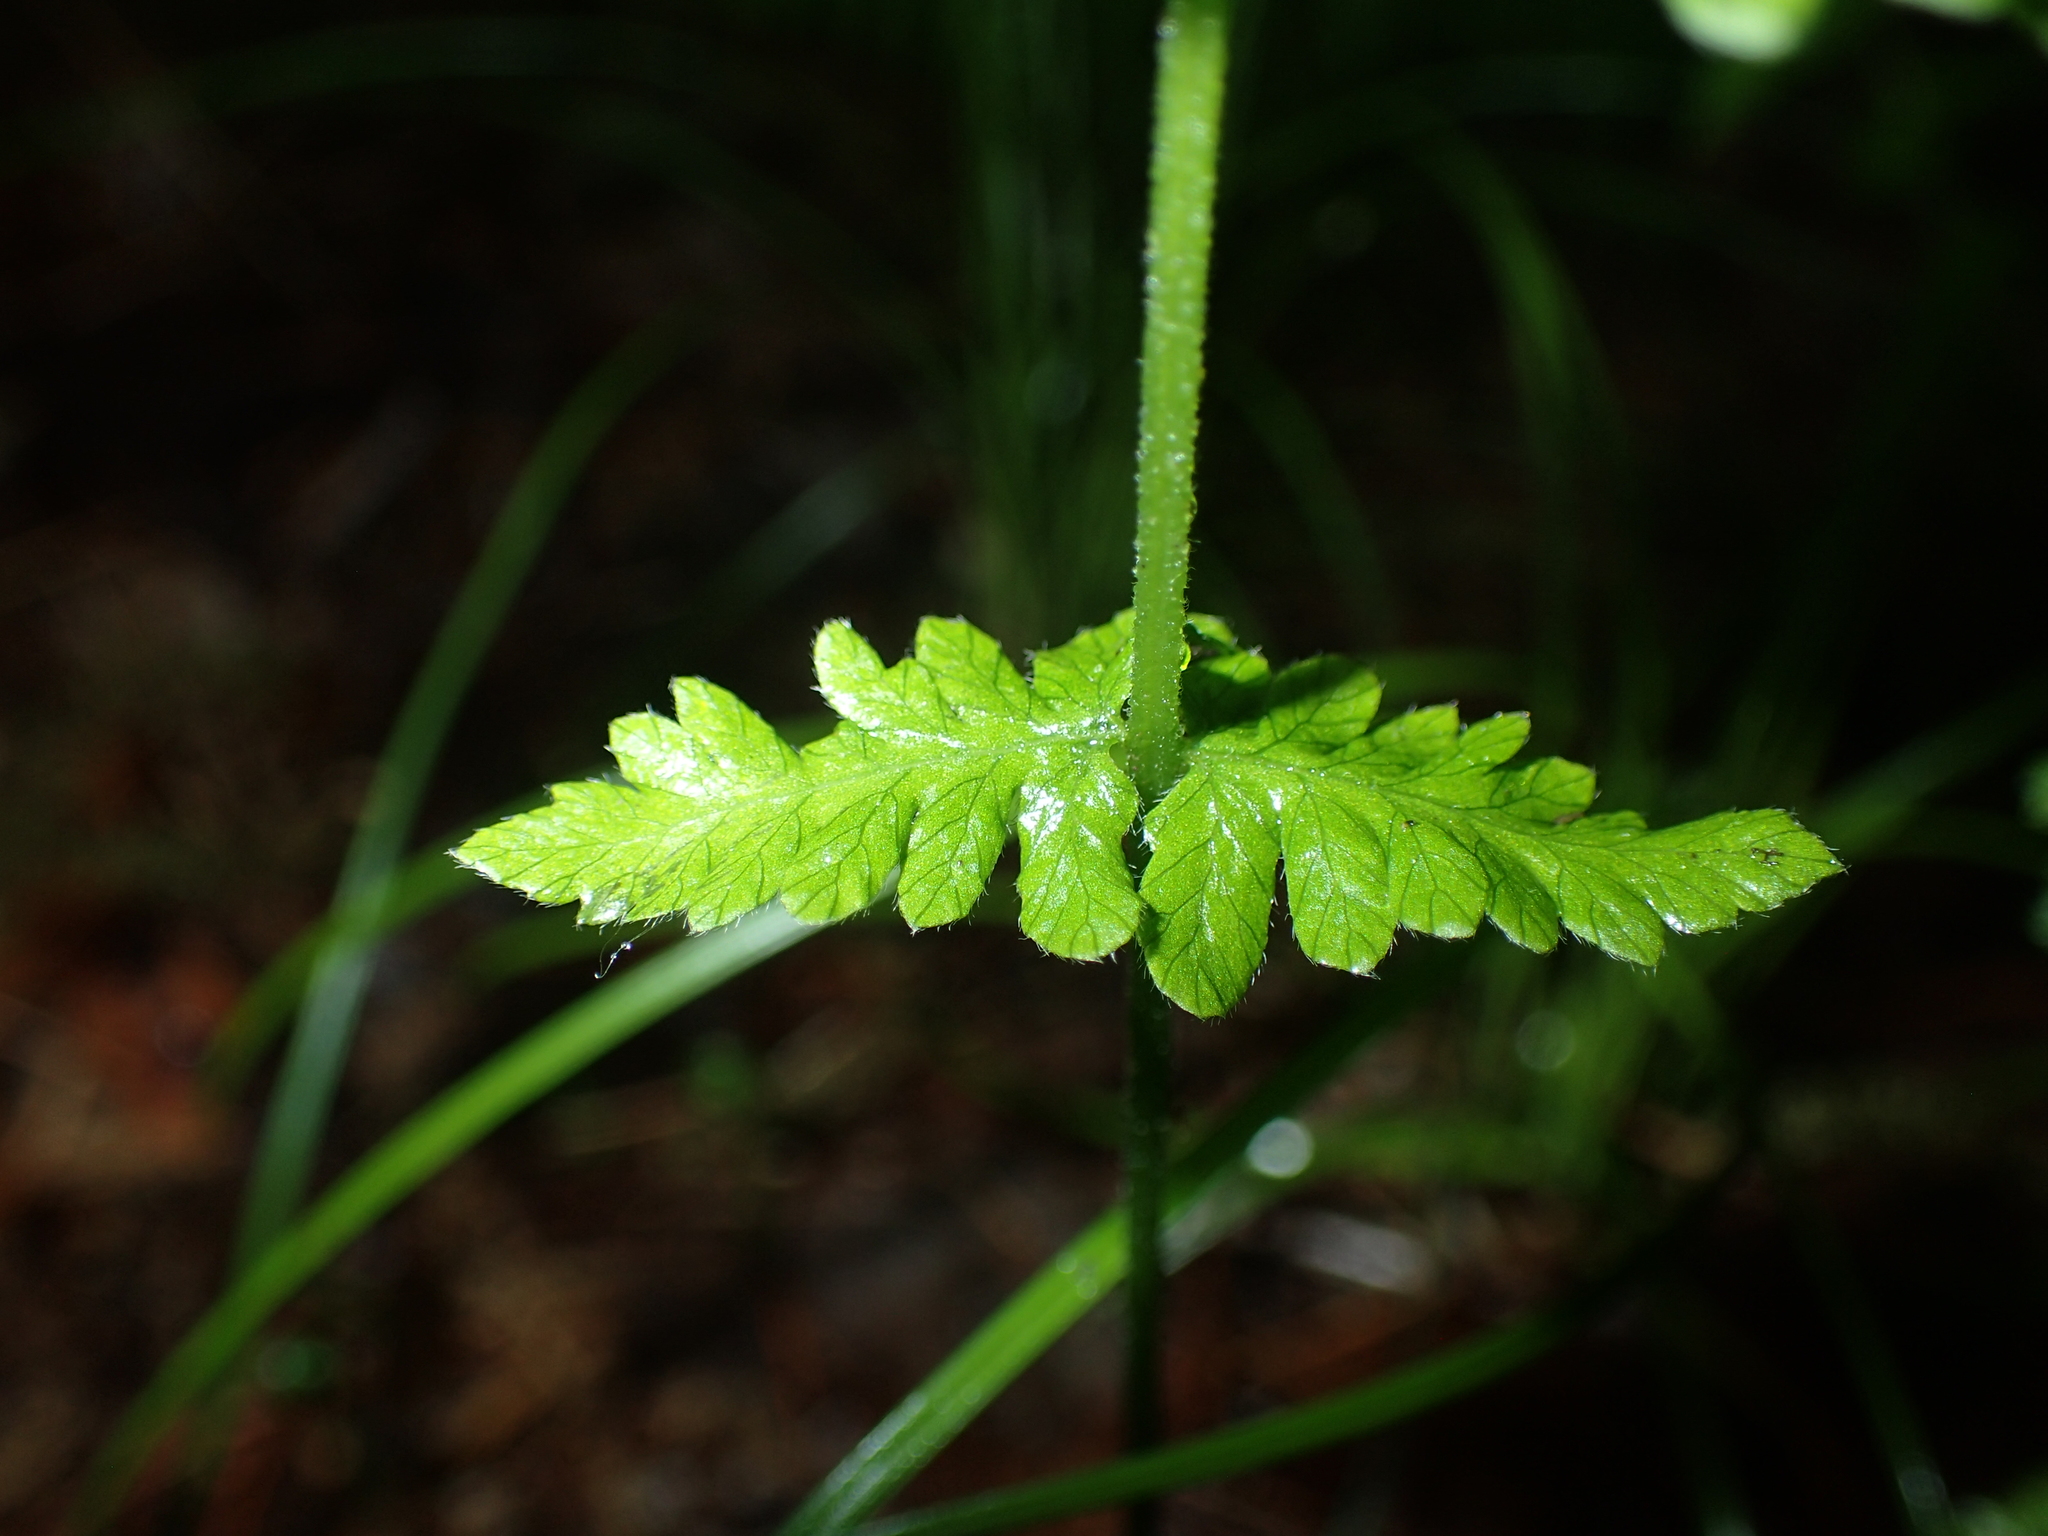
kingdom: Plantae
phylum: Tracheophyta
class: Polypodiopsida
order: Polypodiales
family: Thelypteridaceae
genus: Amauropelta
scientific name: Amauropelta noveboracensis
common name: New york fern
